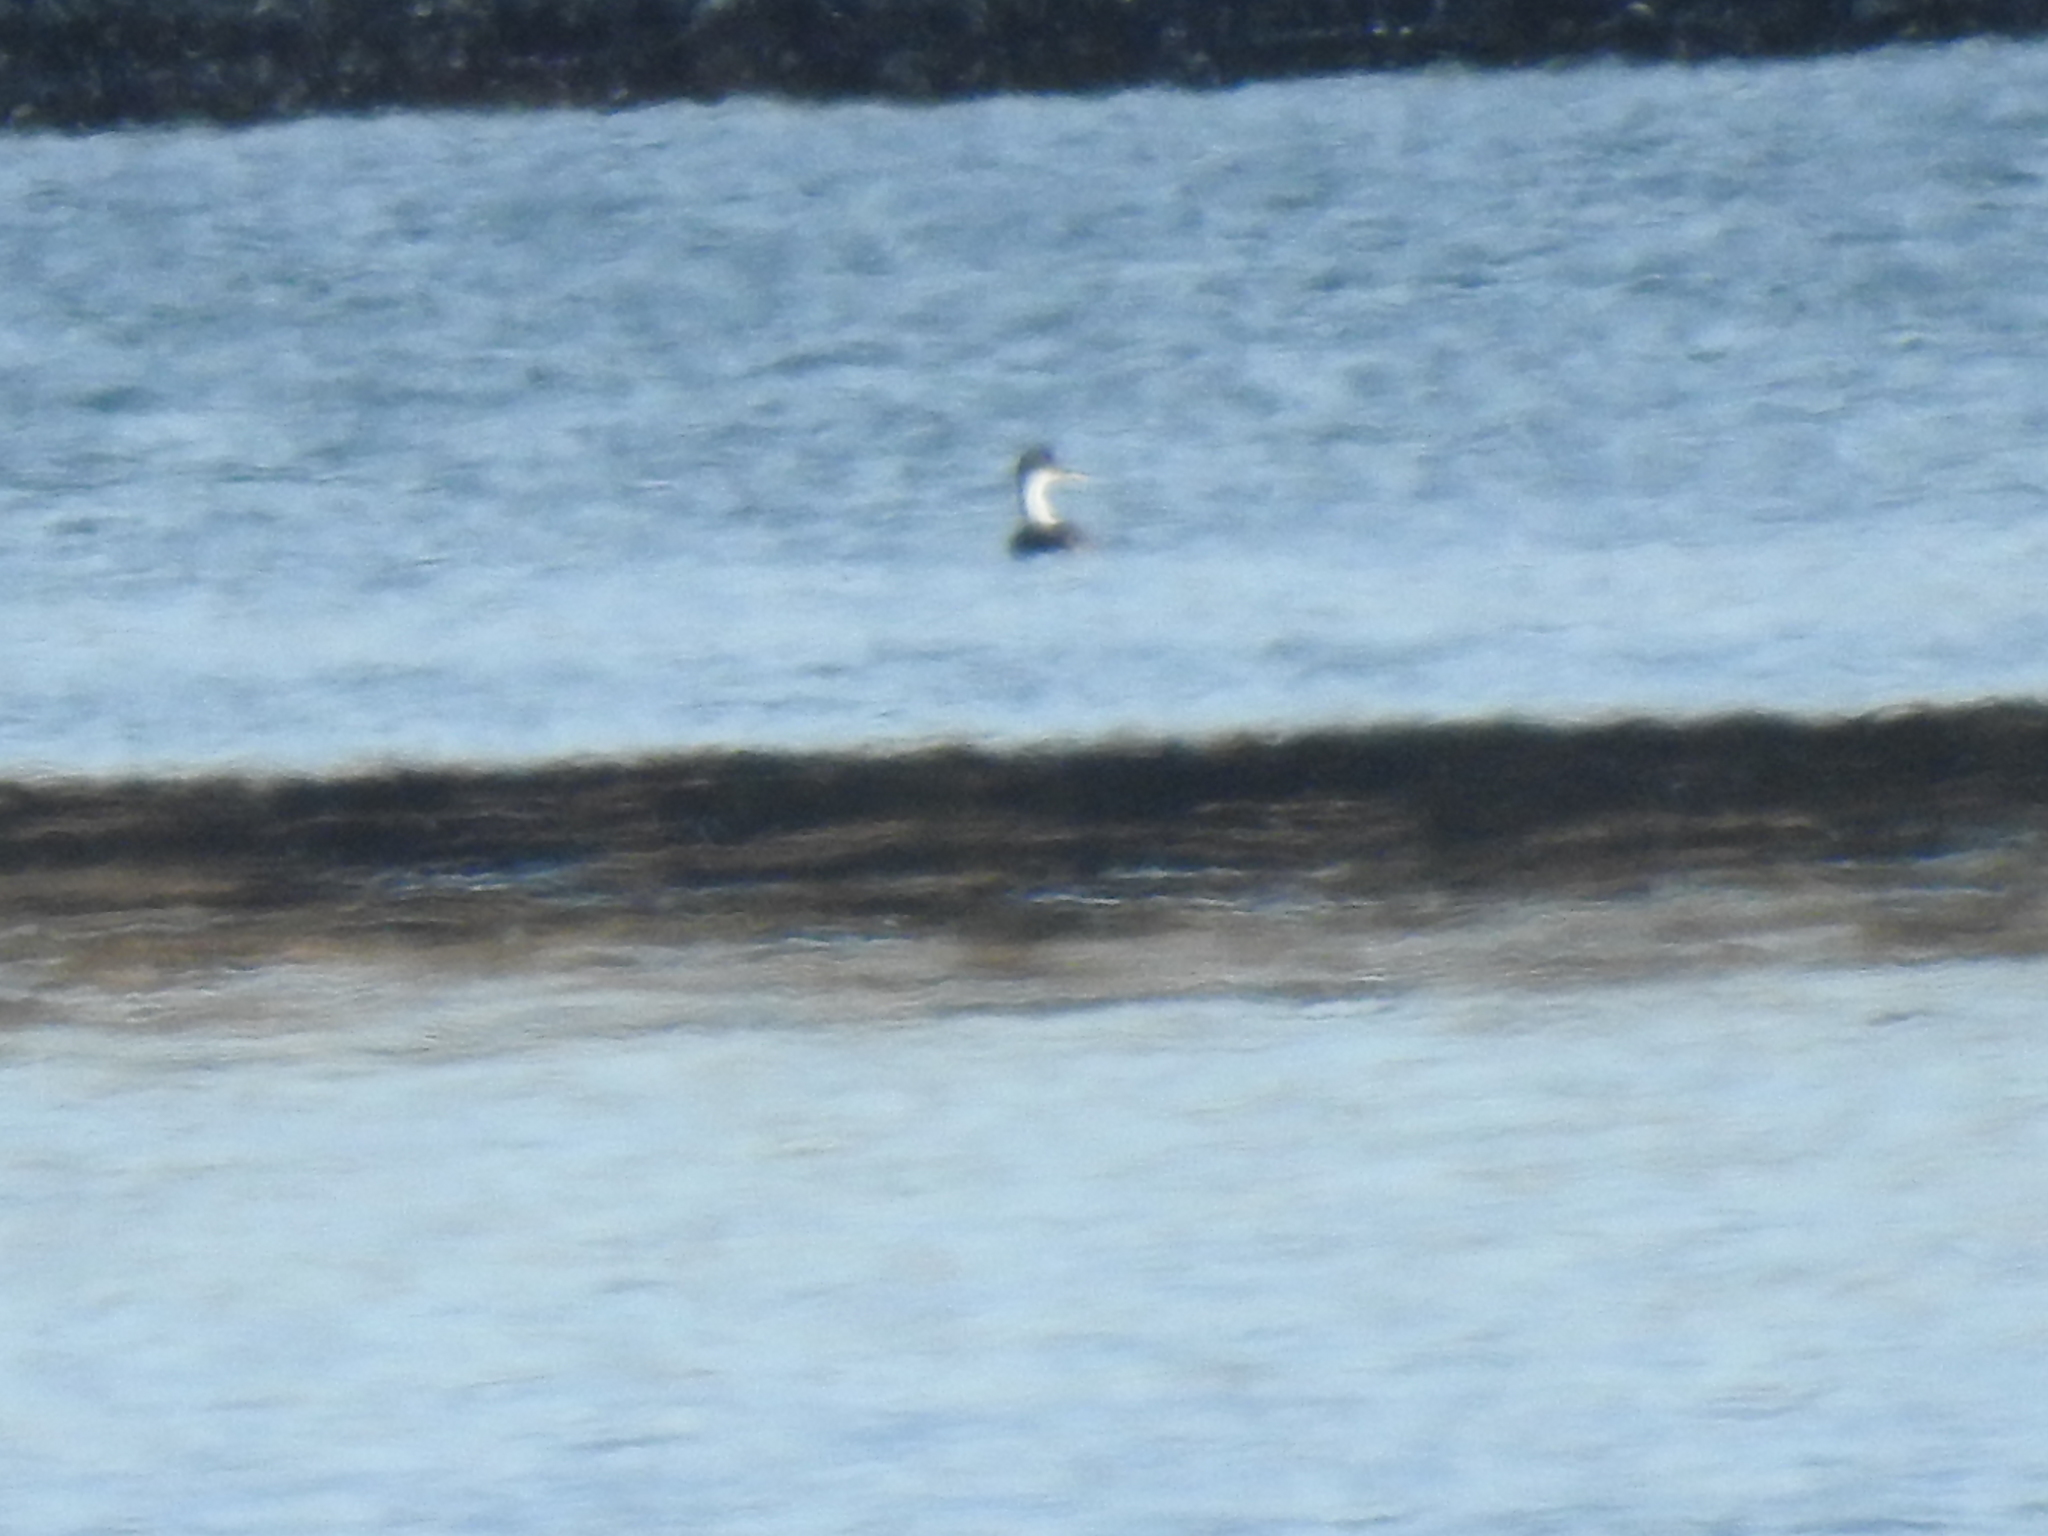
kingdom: Animalia
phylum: Chordata
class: Aves
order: Podicipediformes
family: Podicipedidae
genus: Aechmophorus
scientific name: Aechmophorus occidentalis
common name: Western grebe
